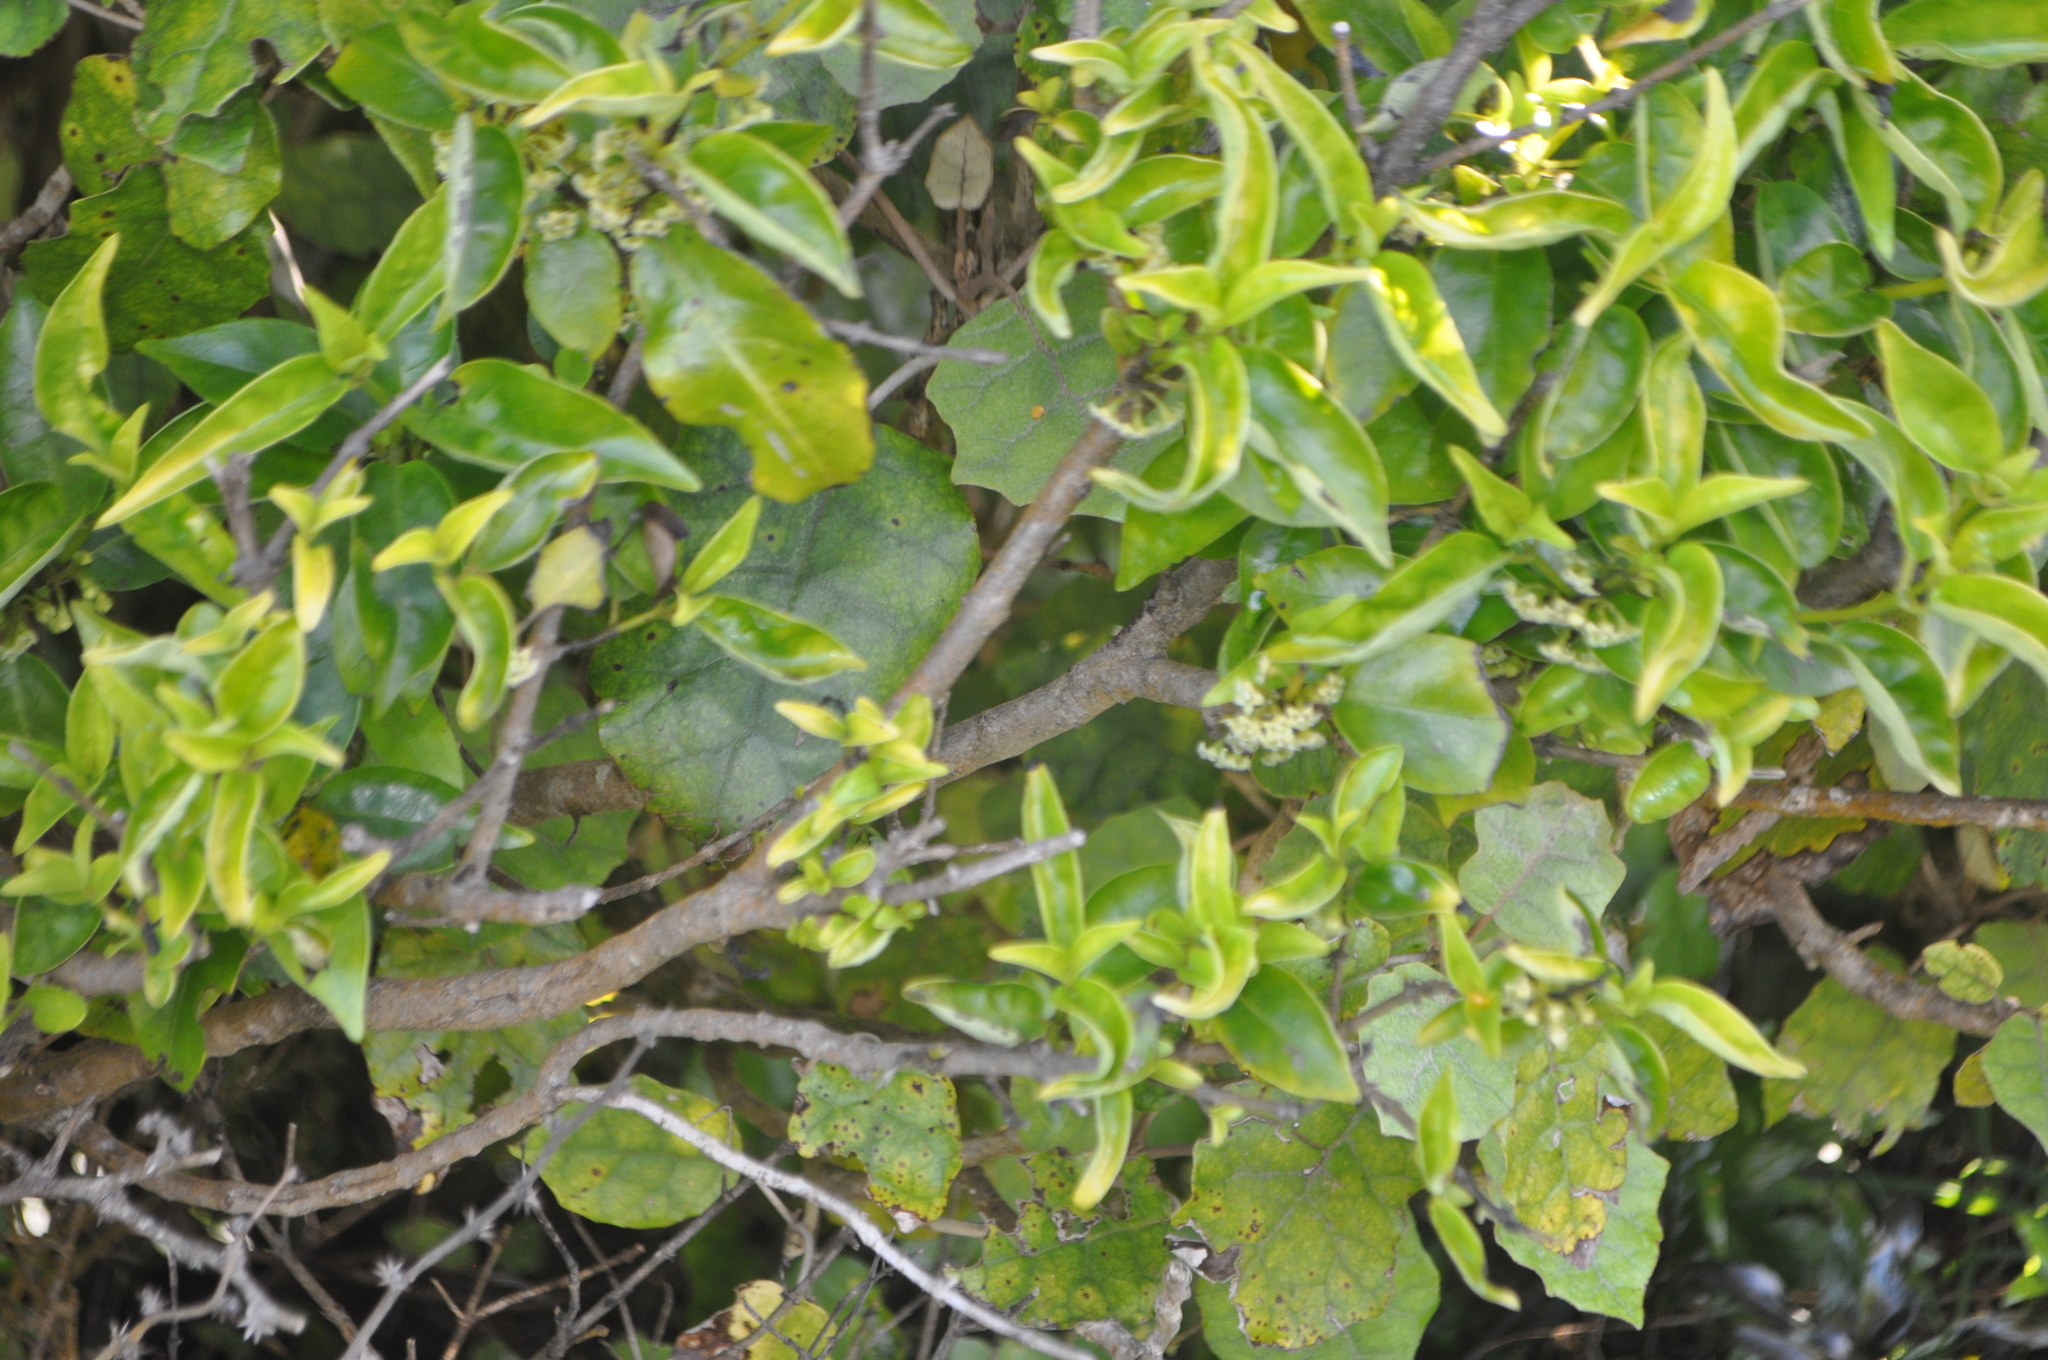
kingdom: Plantae
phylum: Tracheophyta
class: Magnoliopsida
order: Gentianales
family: Loganiaceae
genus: Geniostoma
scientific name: Geniostoma ligustrifolium
